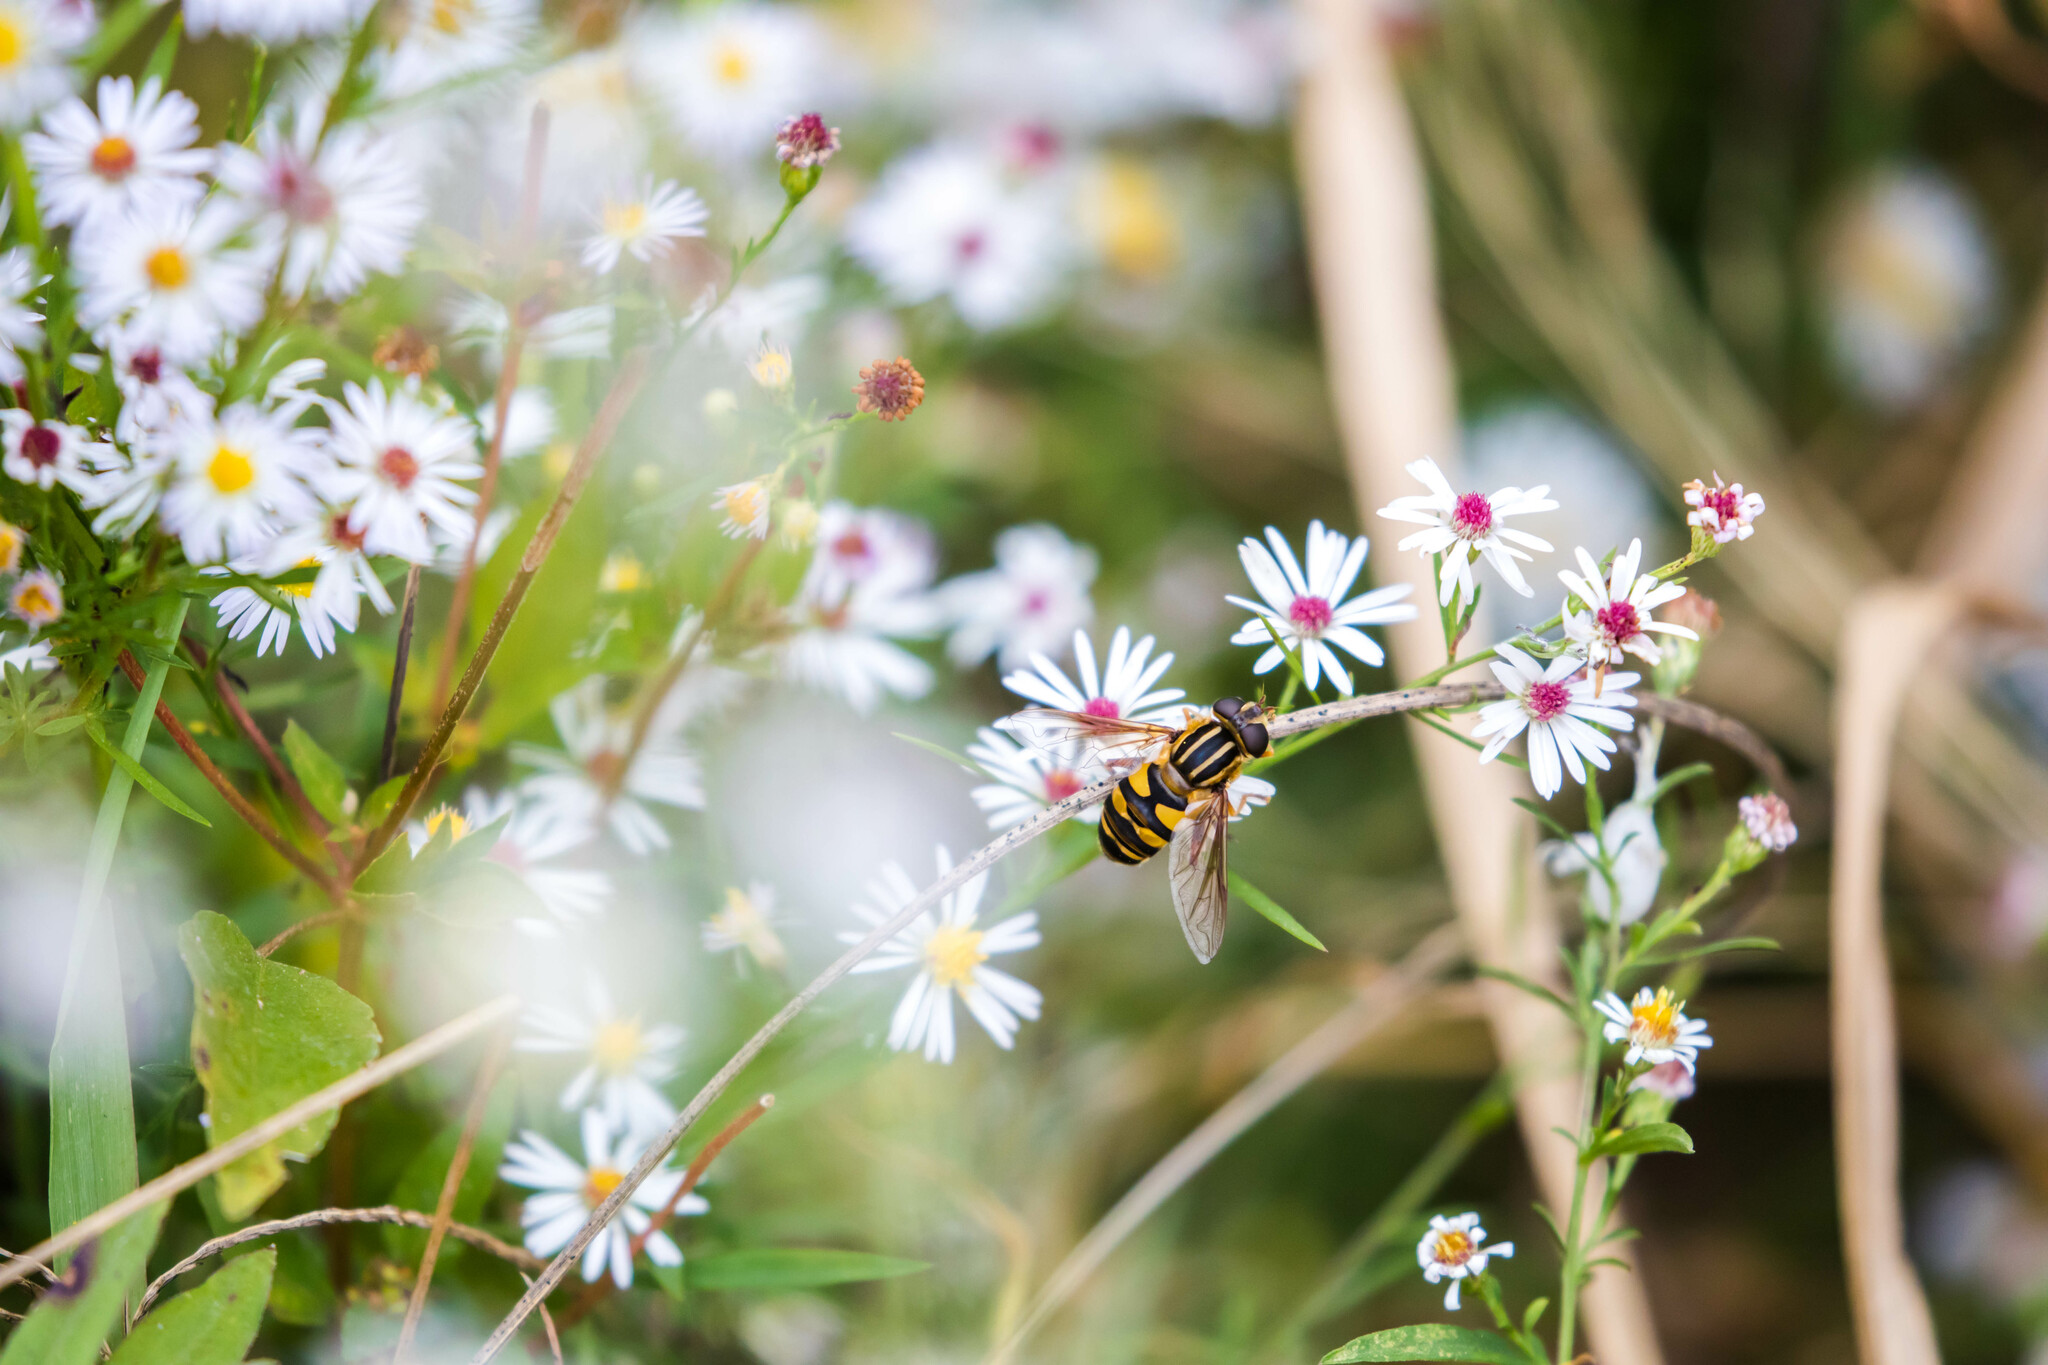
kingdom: Animalia
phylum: Arthropoda
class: Insecta
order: Diptera
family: Syrphidae
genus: Helophilus
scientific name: Helophilus fasciatus
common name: Narrow-headed marsh fly
